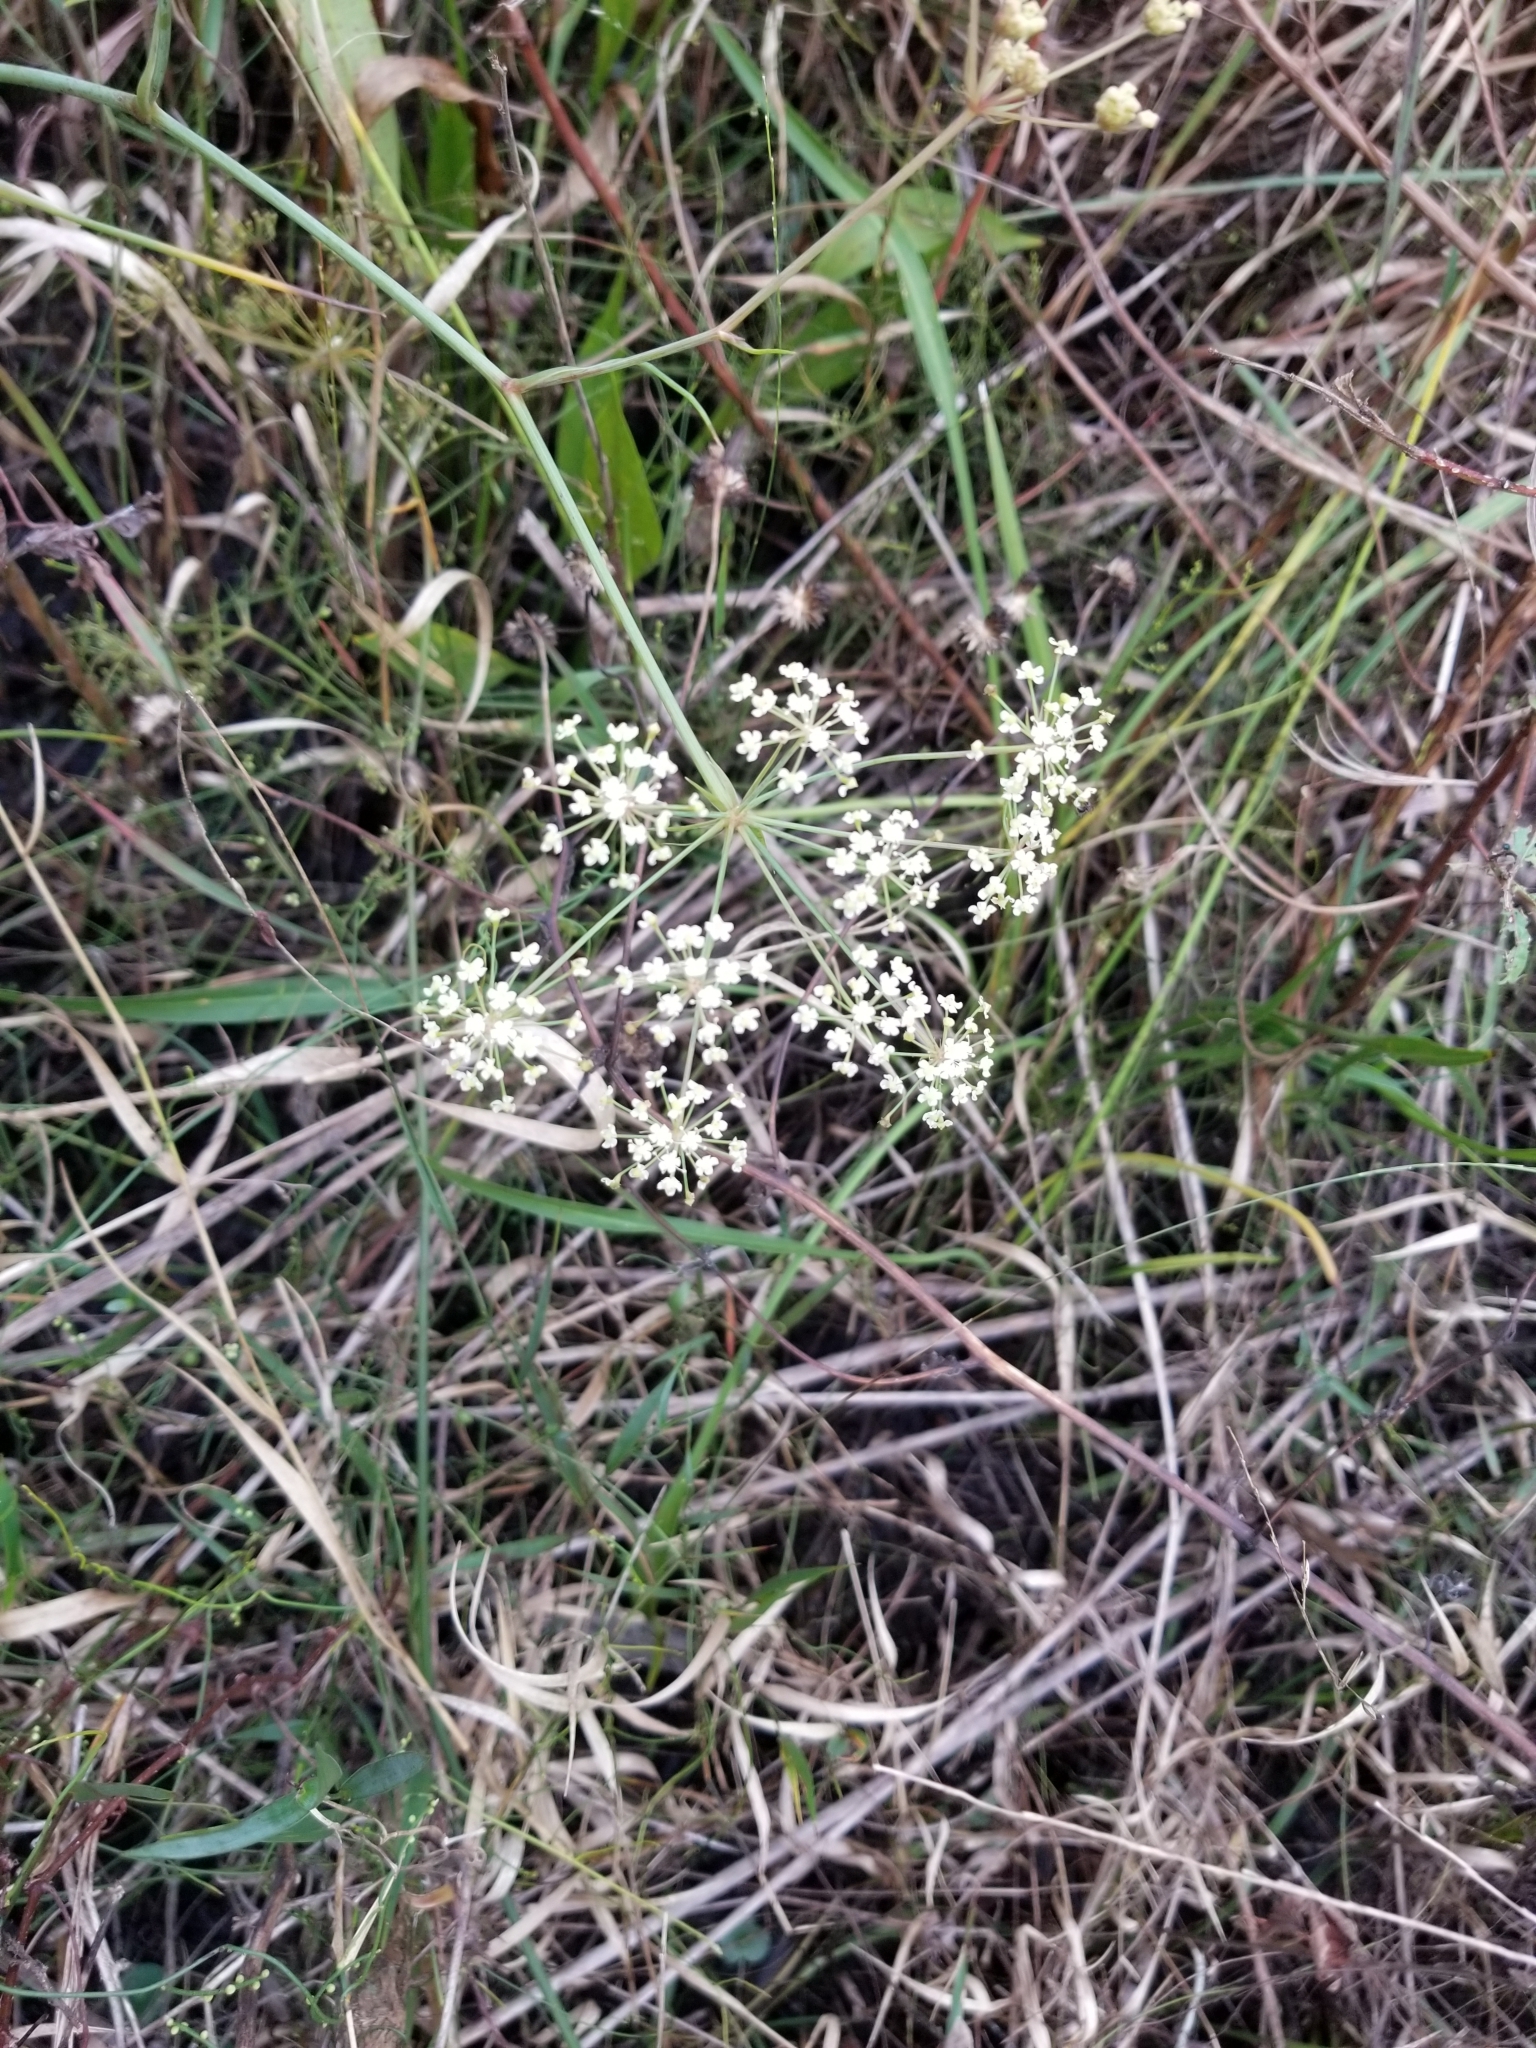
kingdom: Plantae
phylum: Tracheophyta
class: Magnoliopsida
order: Apiales
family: Apiaceae
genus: Tiedemannia
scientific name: Tiedemannia filiformis
